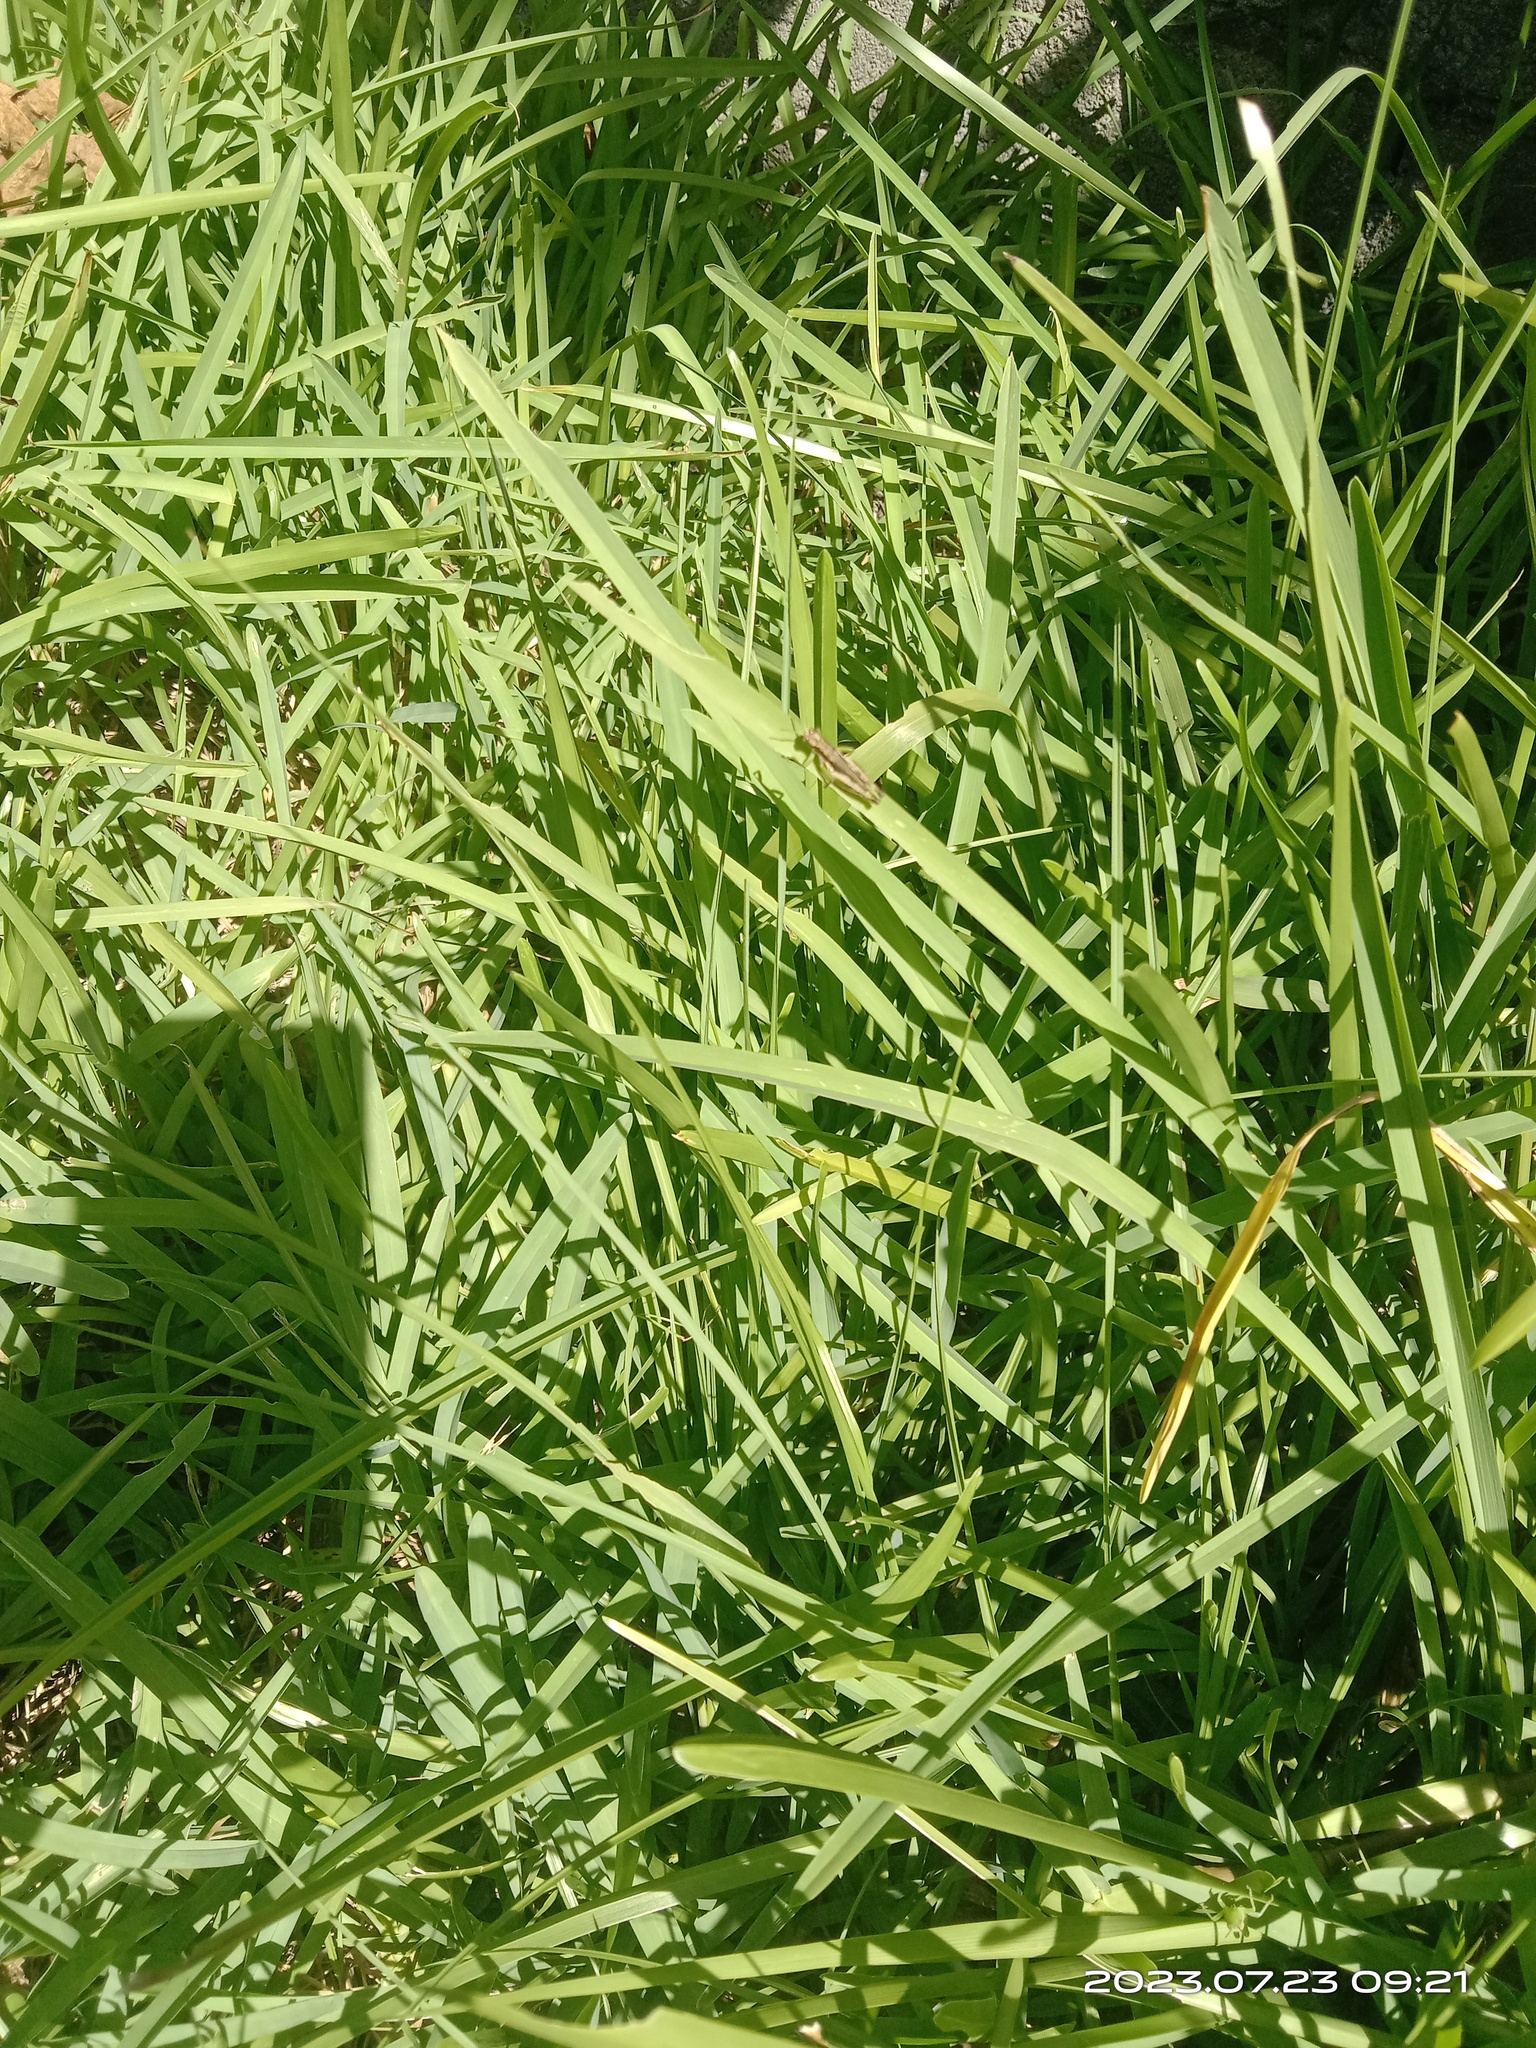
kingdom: Animalia
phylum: Arthropoda
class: Insecta
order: Orthoptera
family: Acrididae
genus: Pseudoxya
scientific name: Pseudoxya diminuta
